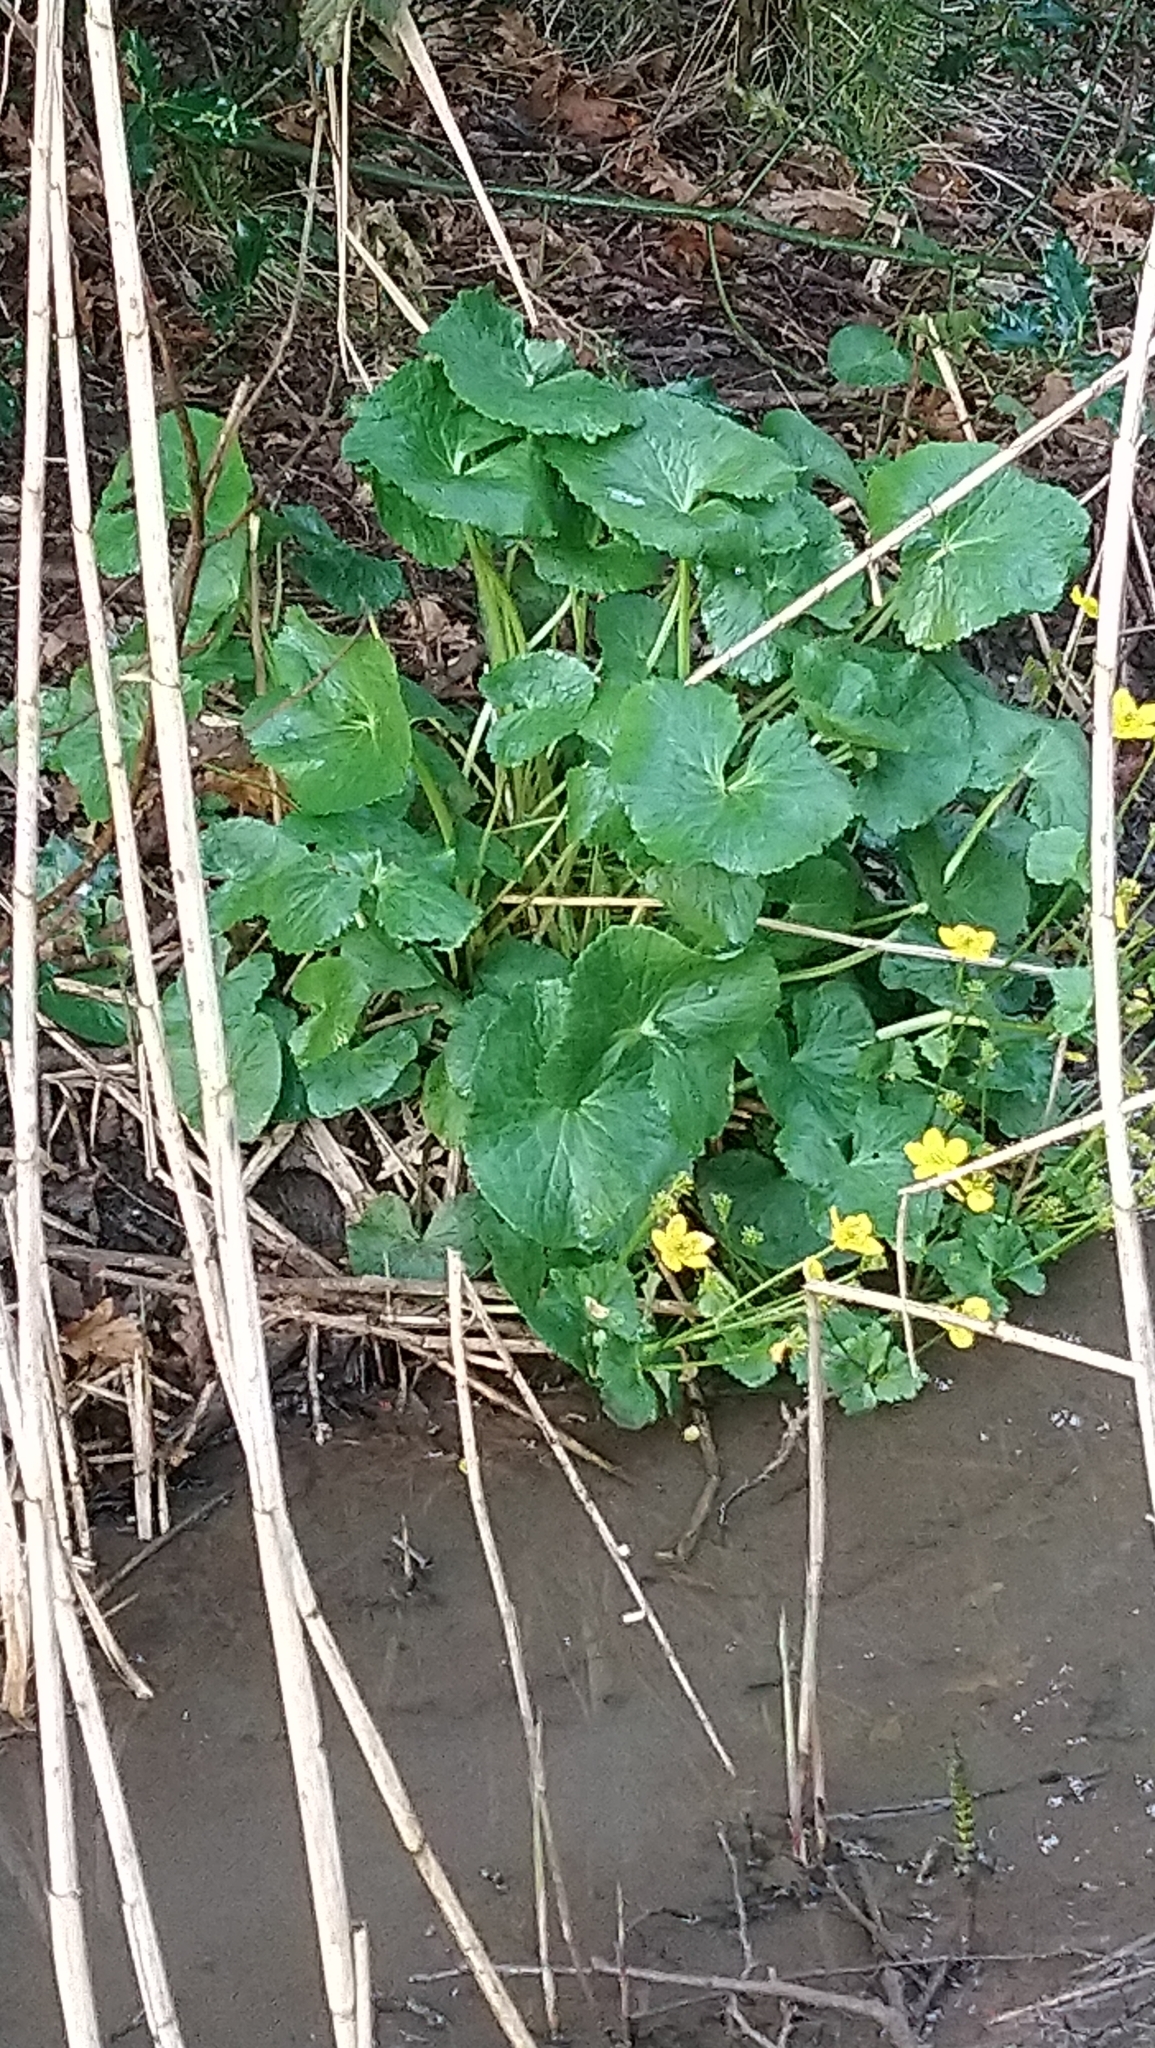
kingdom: Plantae
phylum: Tracheophyta
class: Magnoliopsida
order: Ranunculales
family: Ranunculaceae
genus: Caltha
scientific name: Caltha palustris
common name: Marsh marigold
